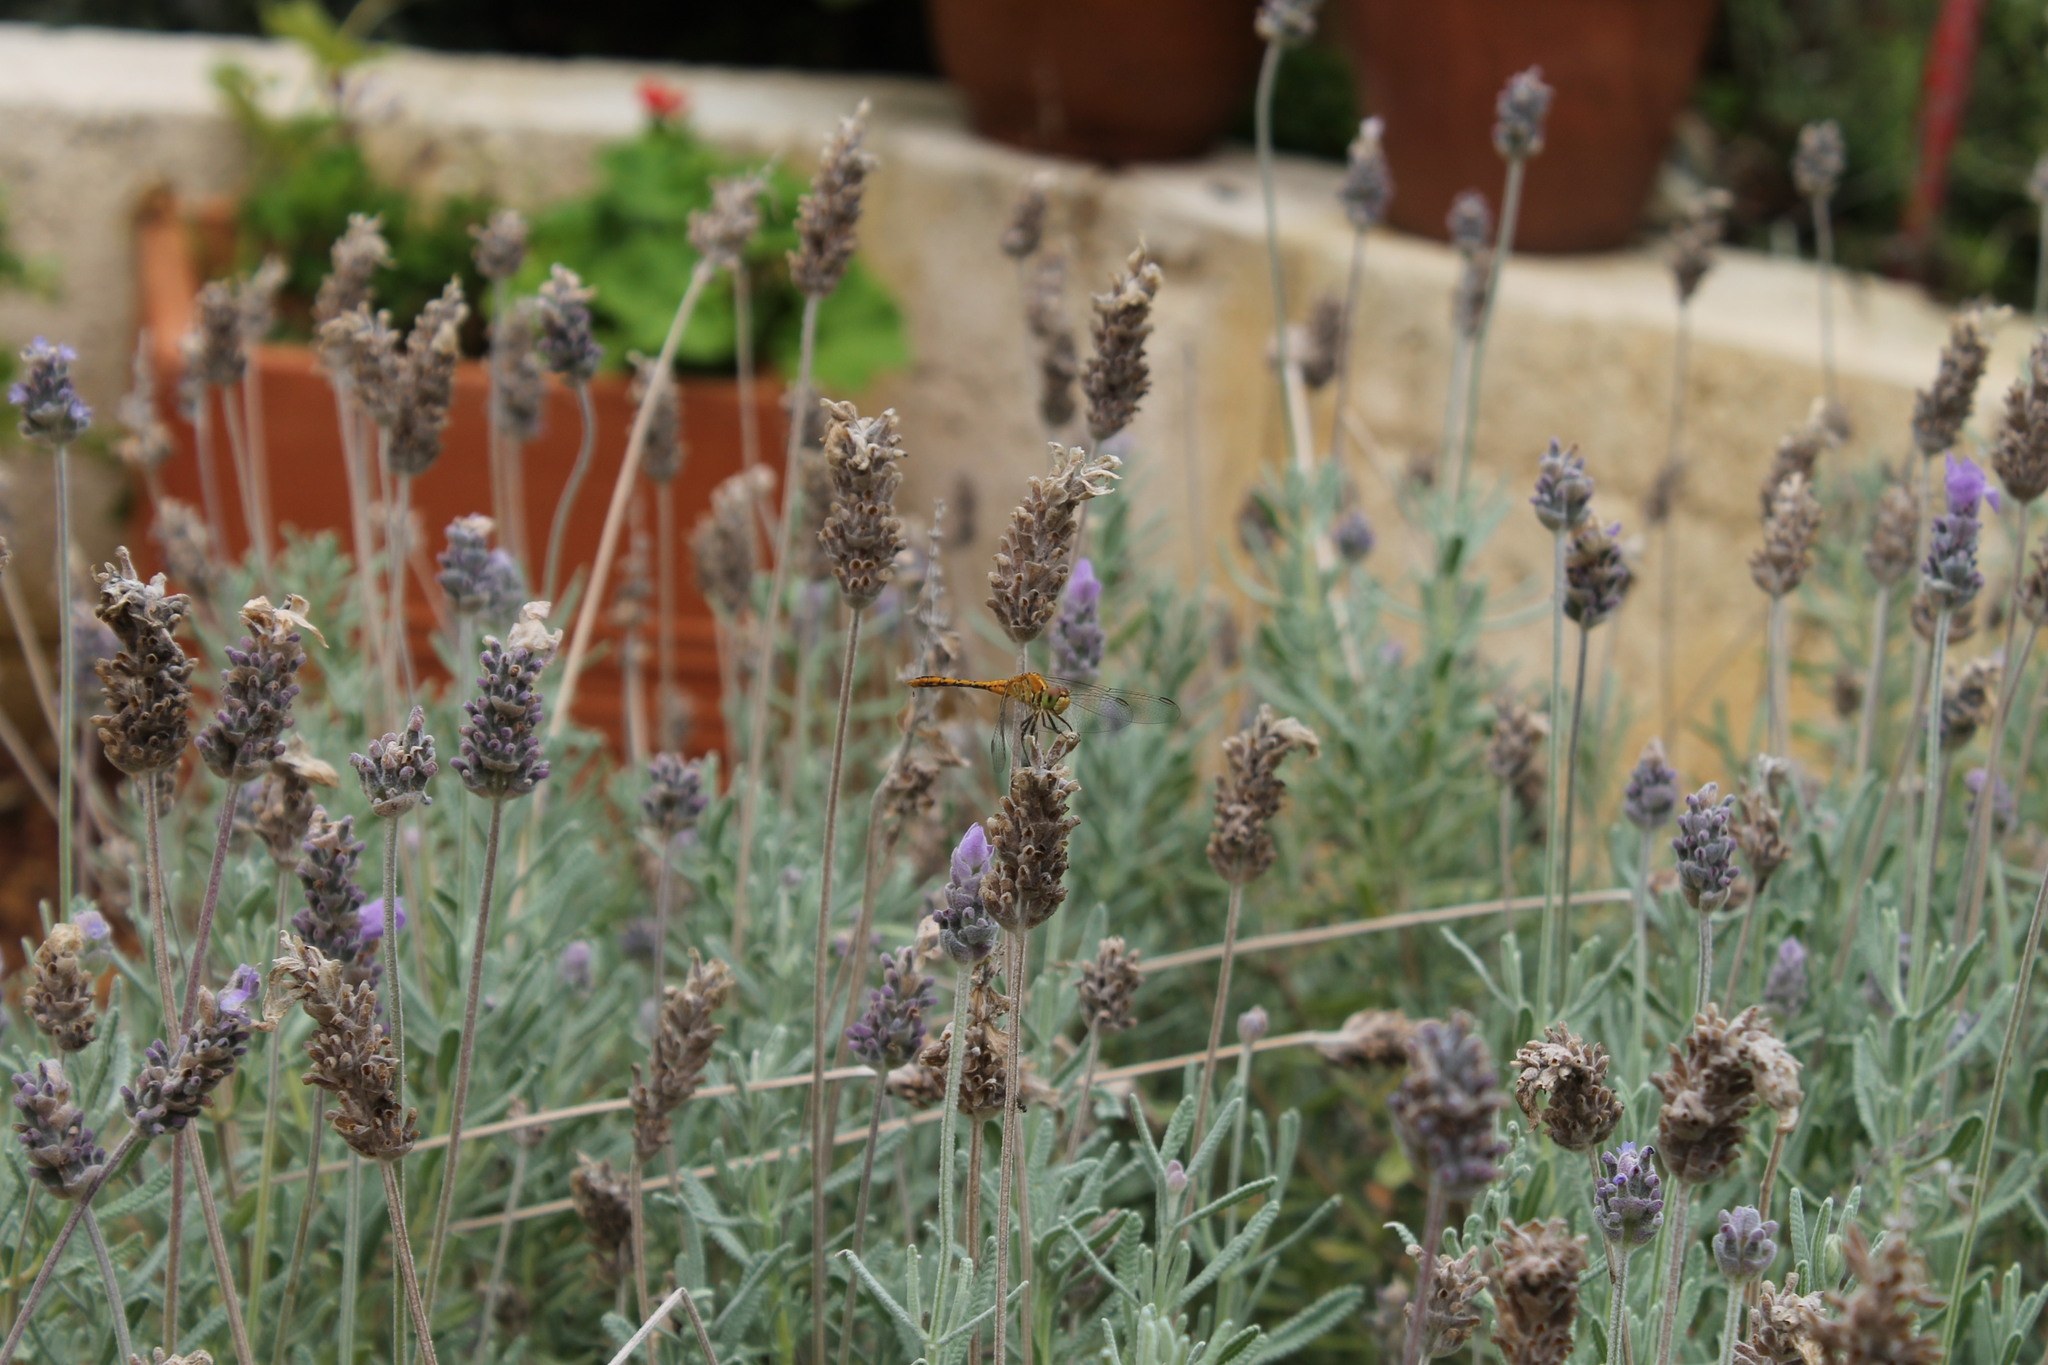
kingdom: Animalia
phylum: Arthropoda
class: Insecta
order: Odonata
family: Libellulidae
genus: Diplacodes
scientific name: Diplacodes bipunctata
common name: Red percher dragonfly
